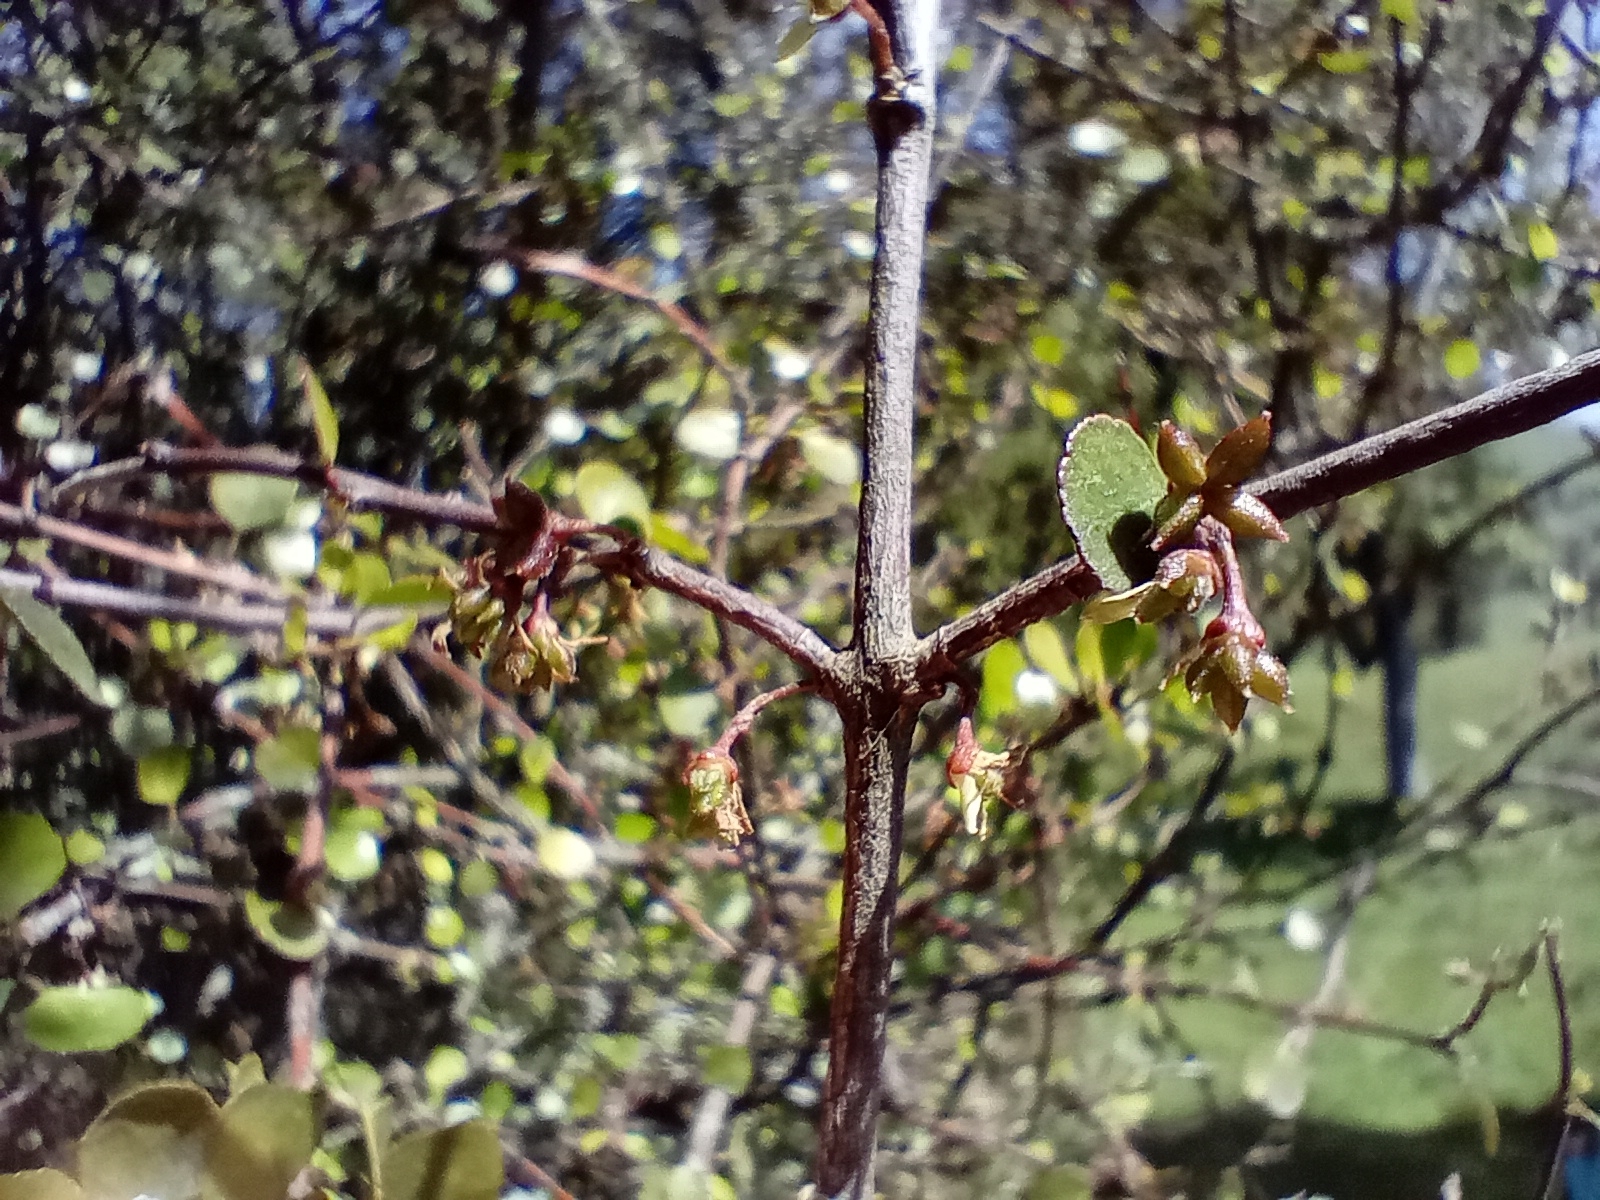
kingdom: Plantae
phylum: Tracheophyta
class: Magnoliopsida
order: Sapindales
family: Rutaceae
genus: Melicope
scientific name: Melicope simplex
